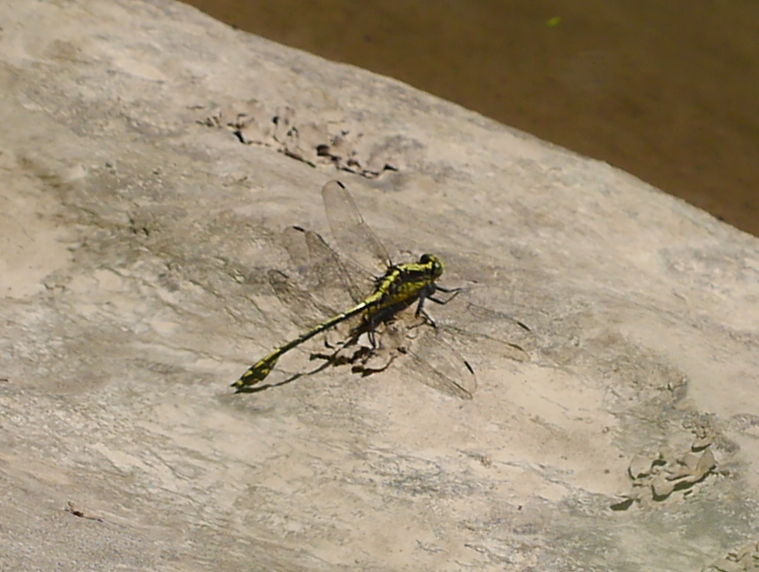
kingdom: Animalia
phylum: Arthropoda
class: Insecta
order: Odonata
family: Gomphidae
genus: Dromogomphus
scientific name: Dromogomphus spinosus
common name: Black-shouldered spinyleg
